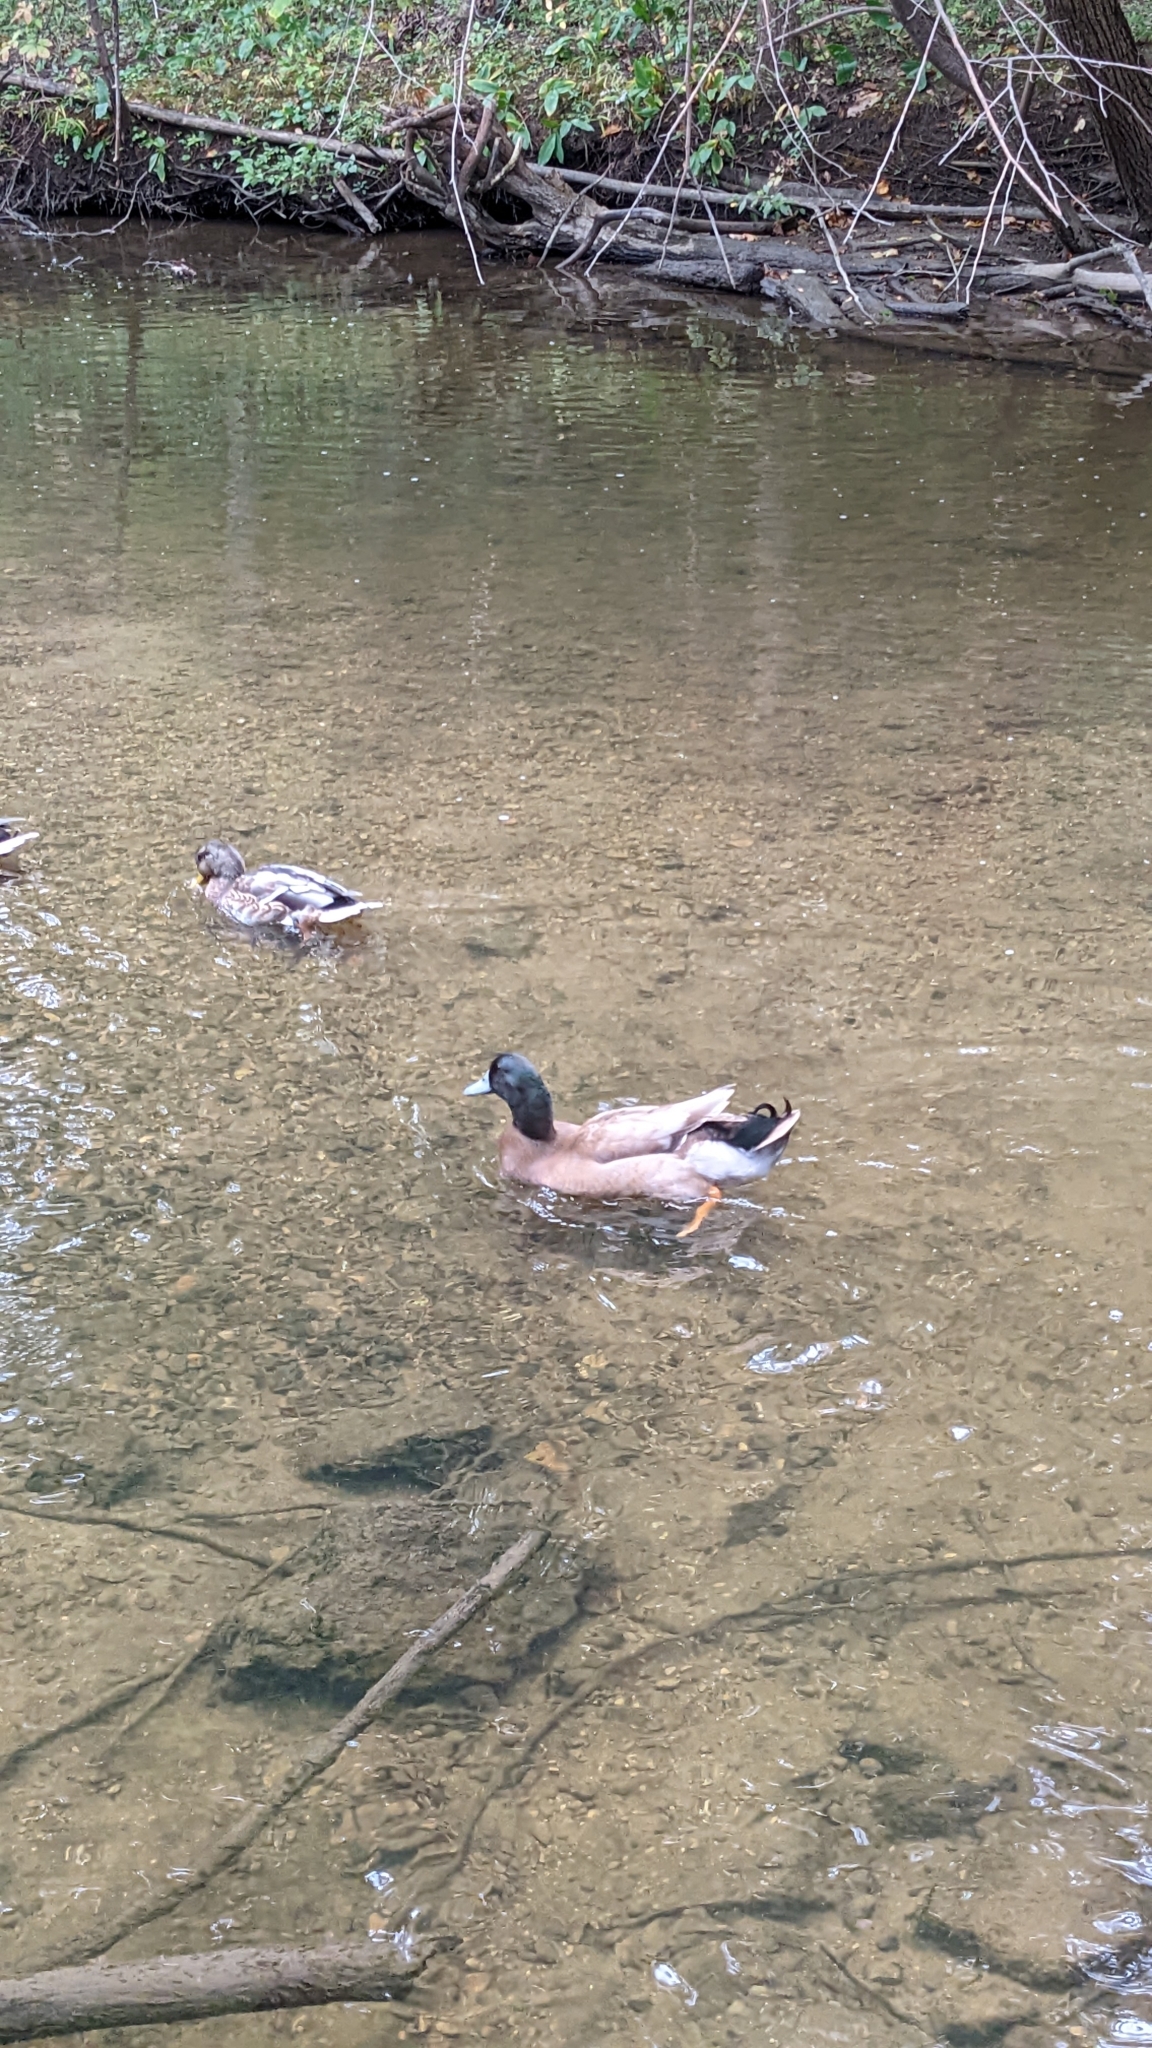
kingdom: Animalia
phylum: Chordata
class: Aves
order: Anseriformes
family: Anatidae
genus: Anas
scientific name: Anas platyrhynchos
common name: Mallard
